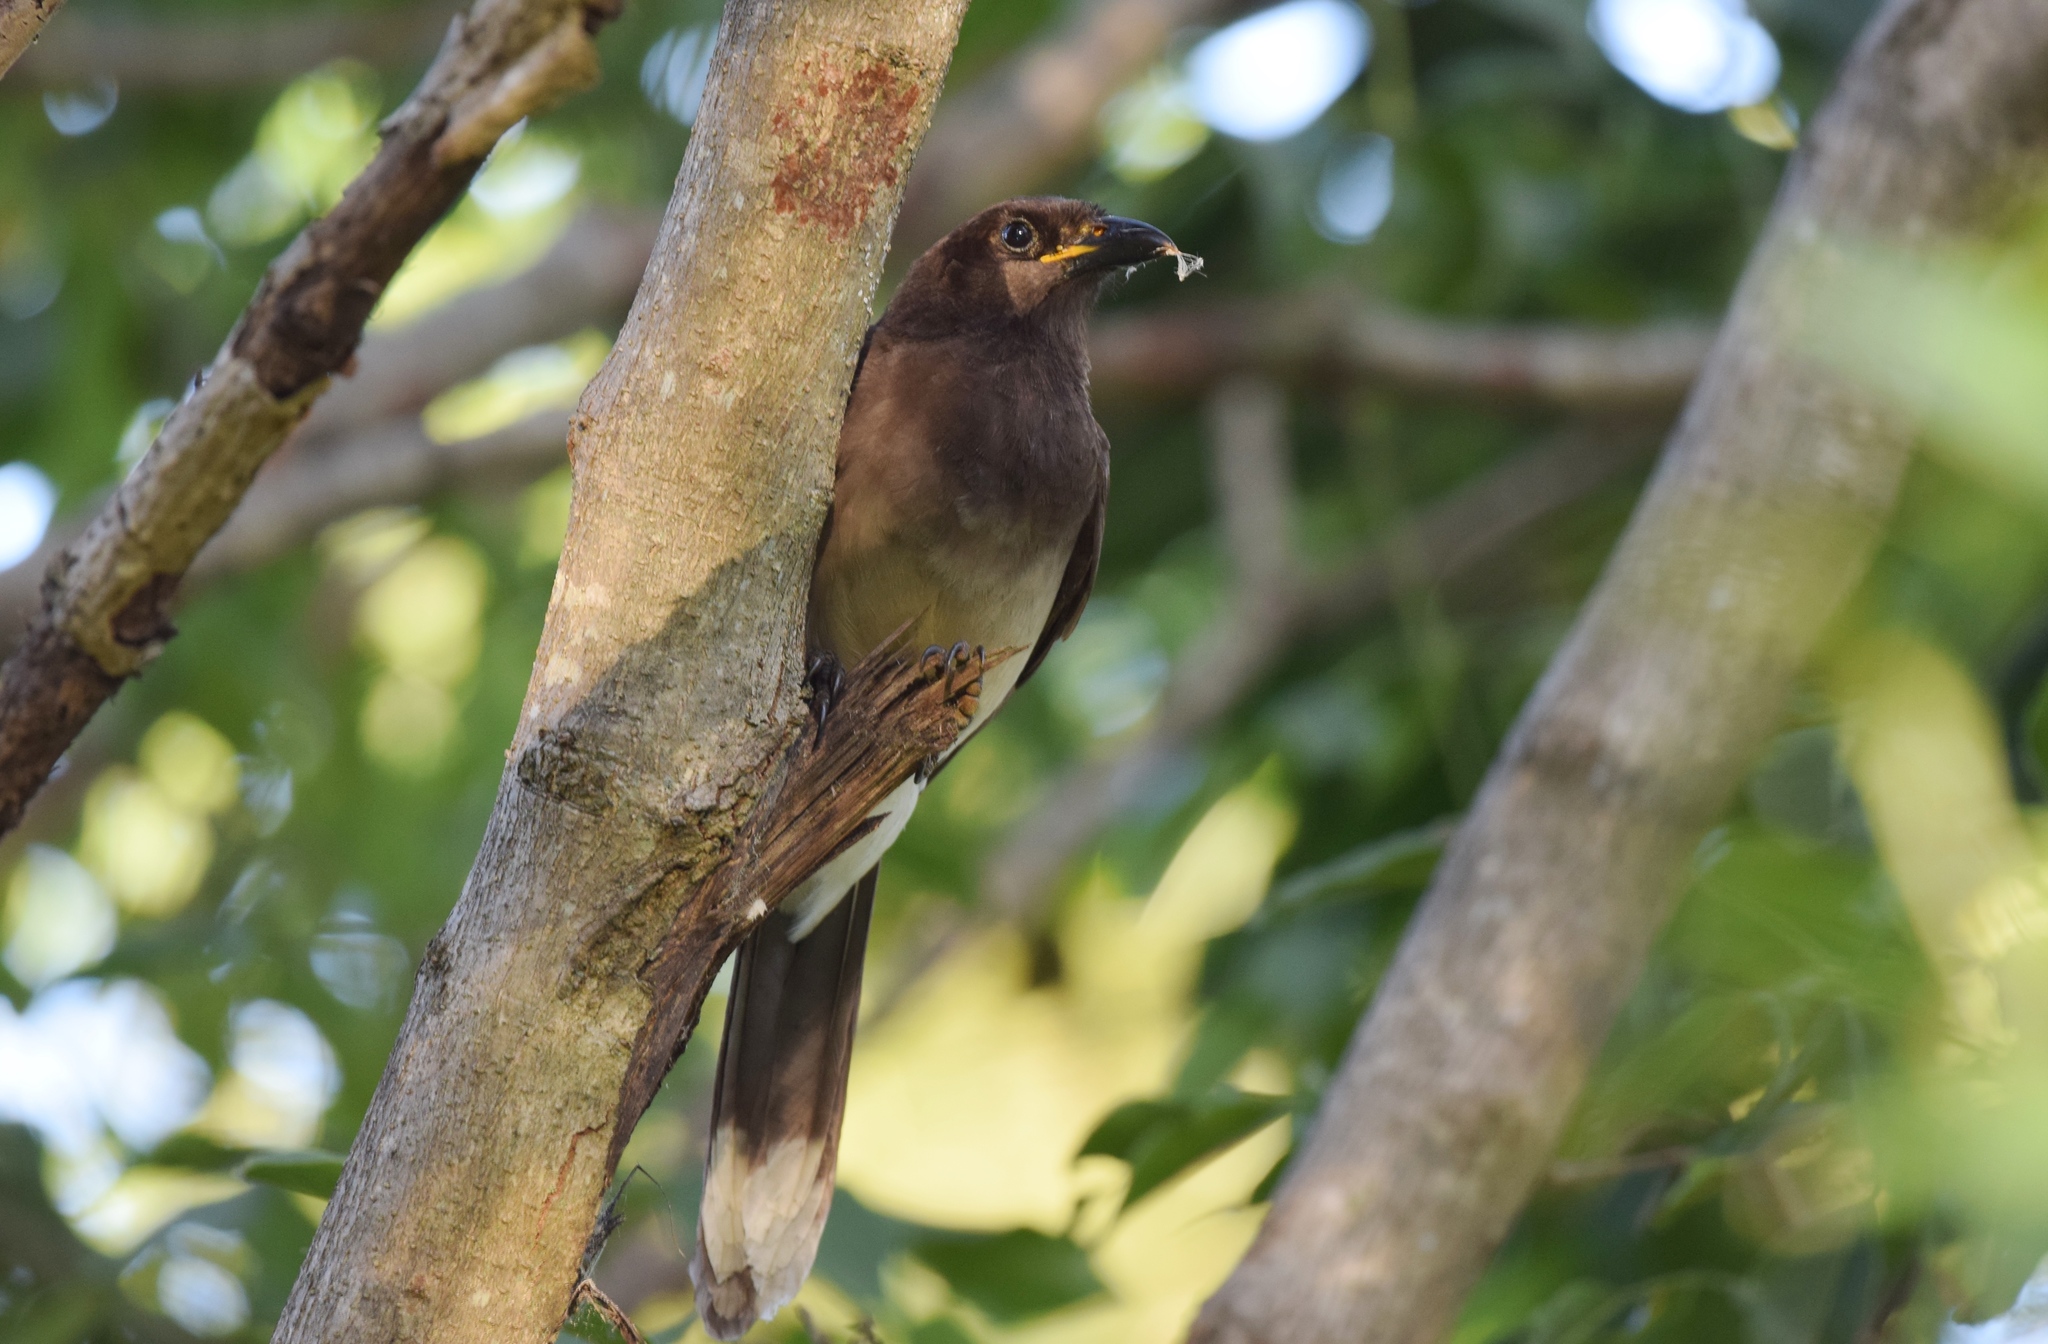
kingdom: Animalia
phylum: Chordata
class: Aves
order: Passeriformes
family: Corvidae
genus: Psilorhinus
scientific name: Psilorhinus morio
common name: Brown jay
